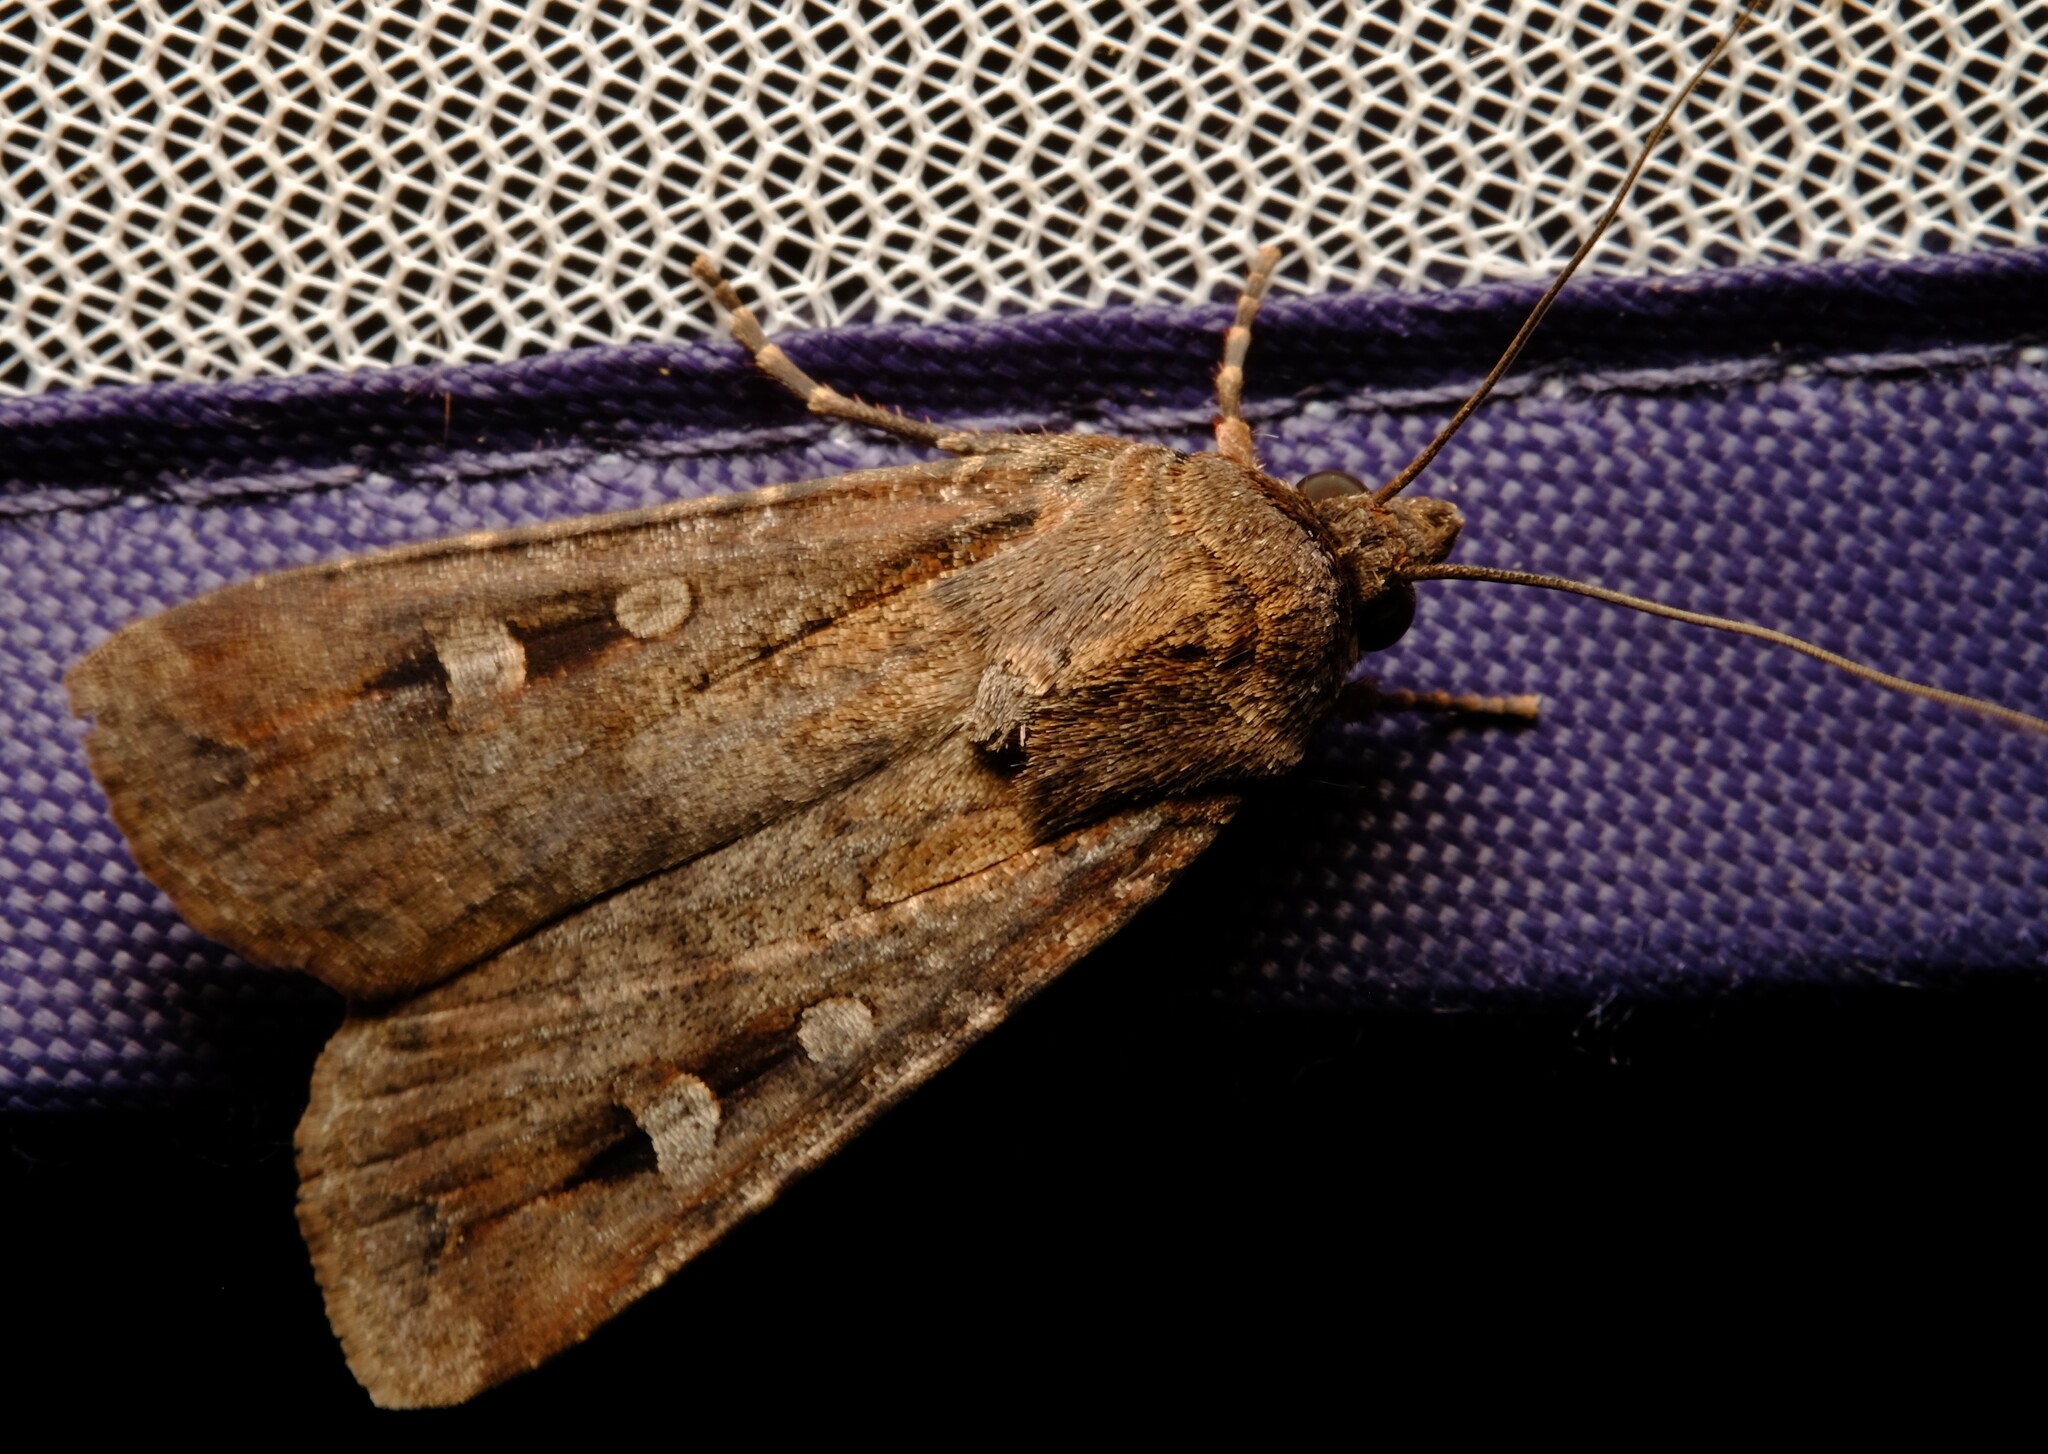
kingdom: Animalia
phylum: Arthropoda
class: Insecta
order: Lepidoptera
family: Noctuidae
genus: Agrotis
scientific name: Agrotis infusa
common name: Bogong moth
